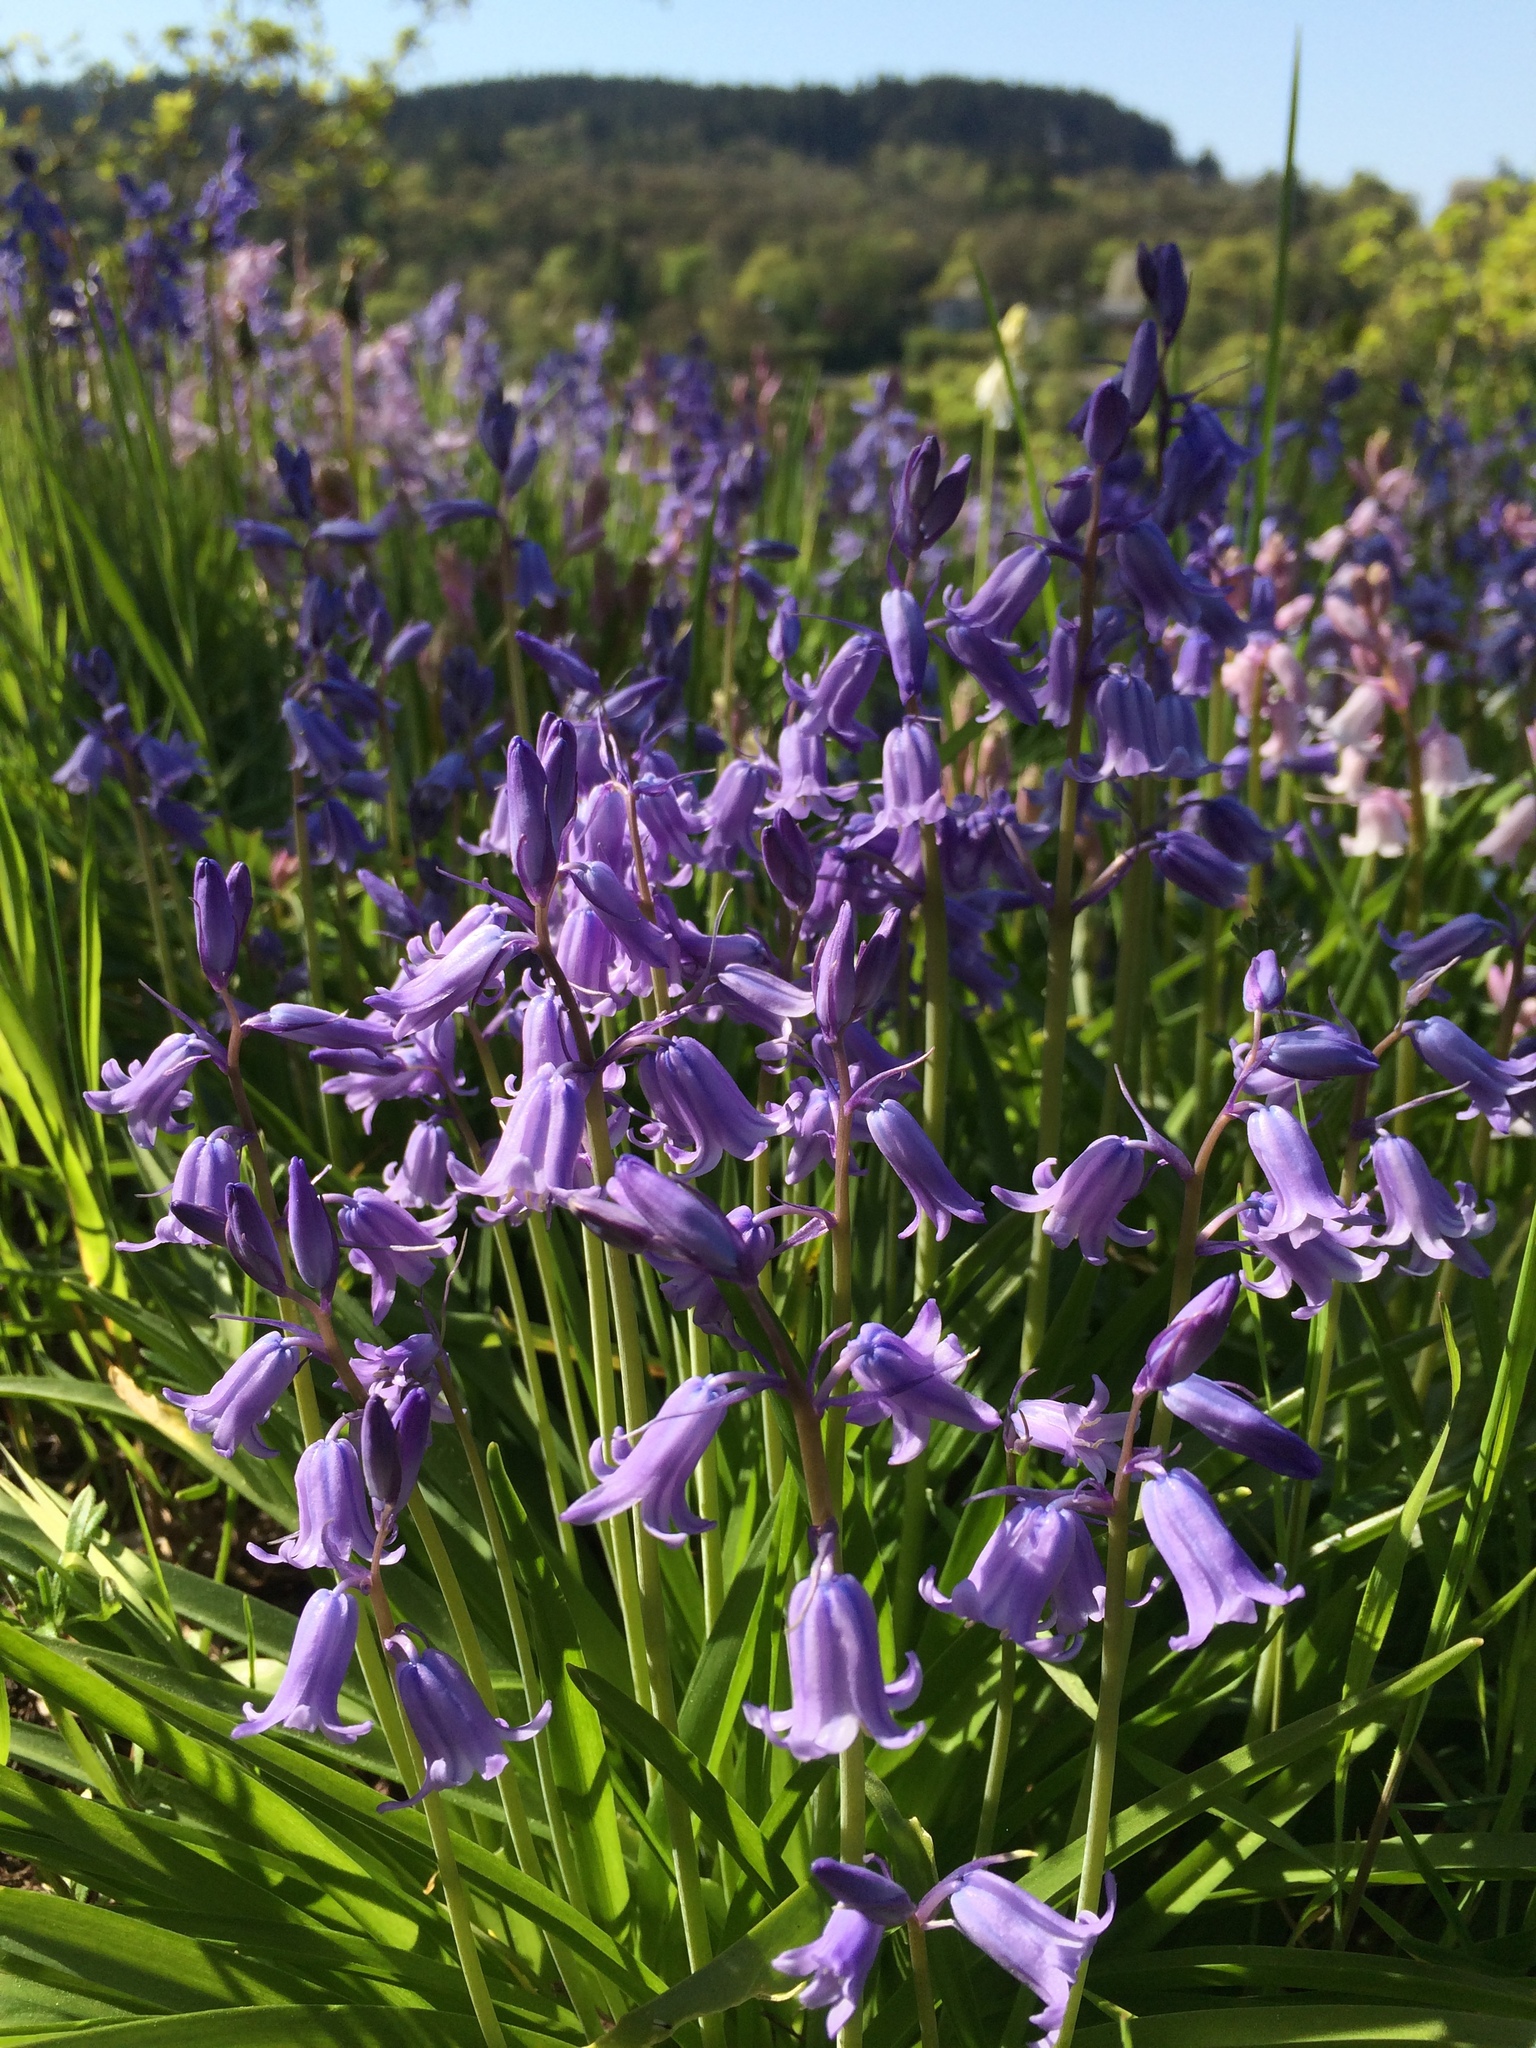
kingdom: Plantae
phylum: Tracheophyta
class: Liliopsida
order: Asparagales
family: Asparagaceae
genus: Hyacinthoides
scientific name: Hyacinthoides massartiana
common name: Hyacinthoides
